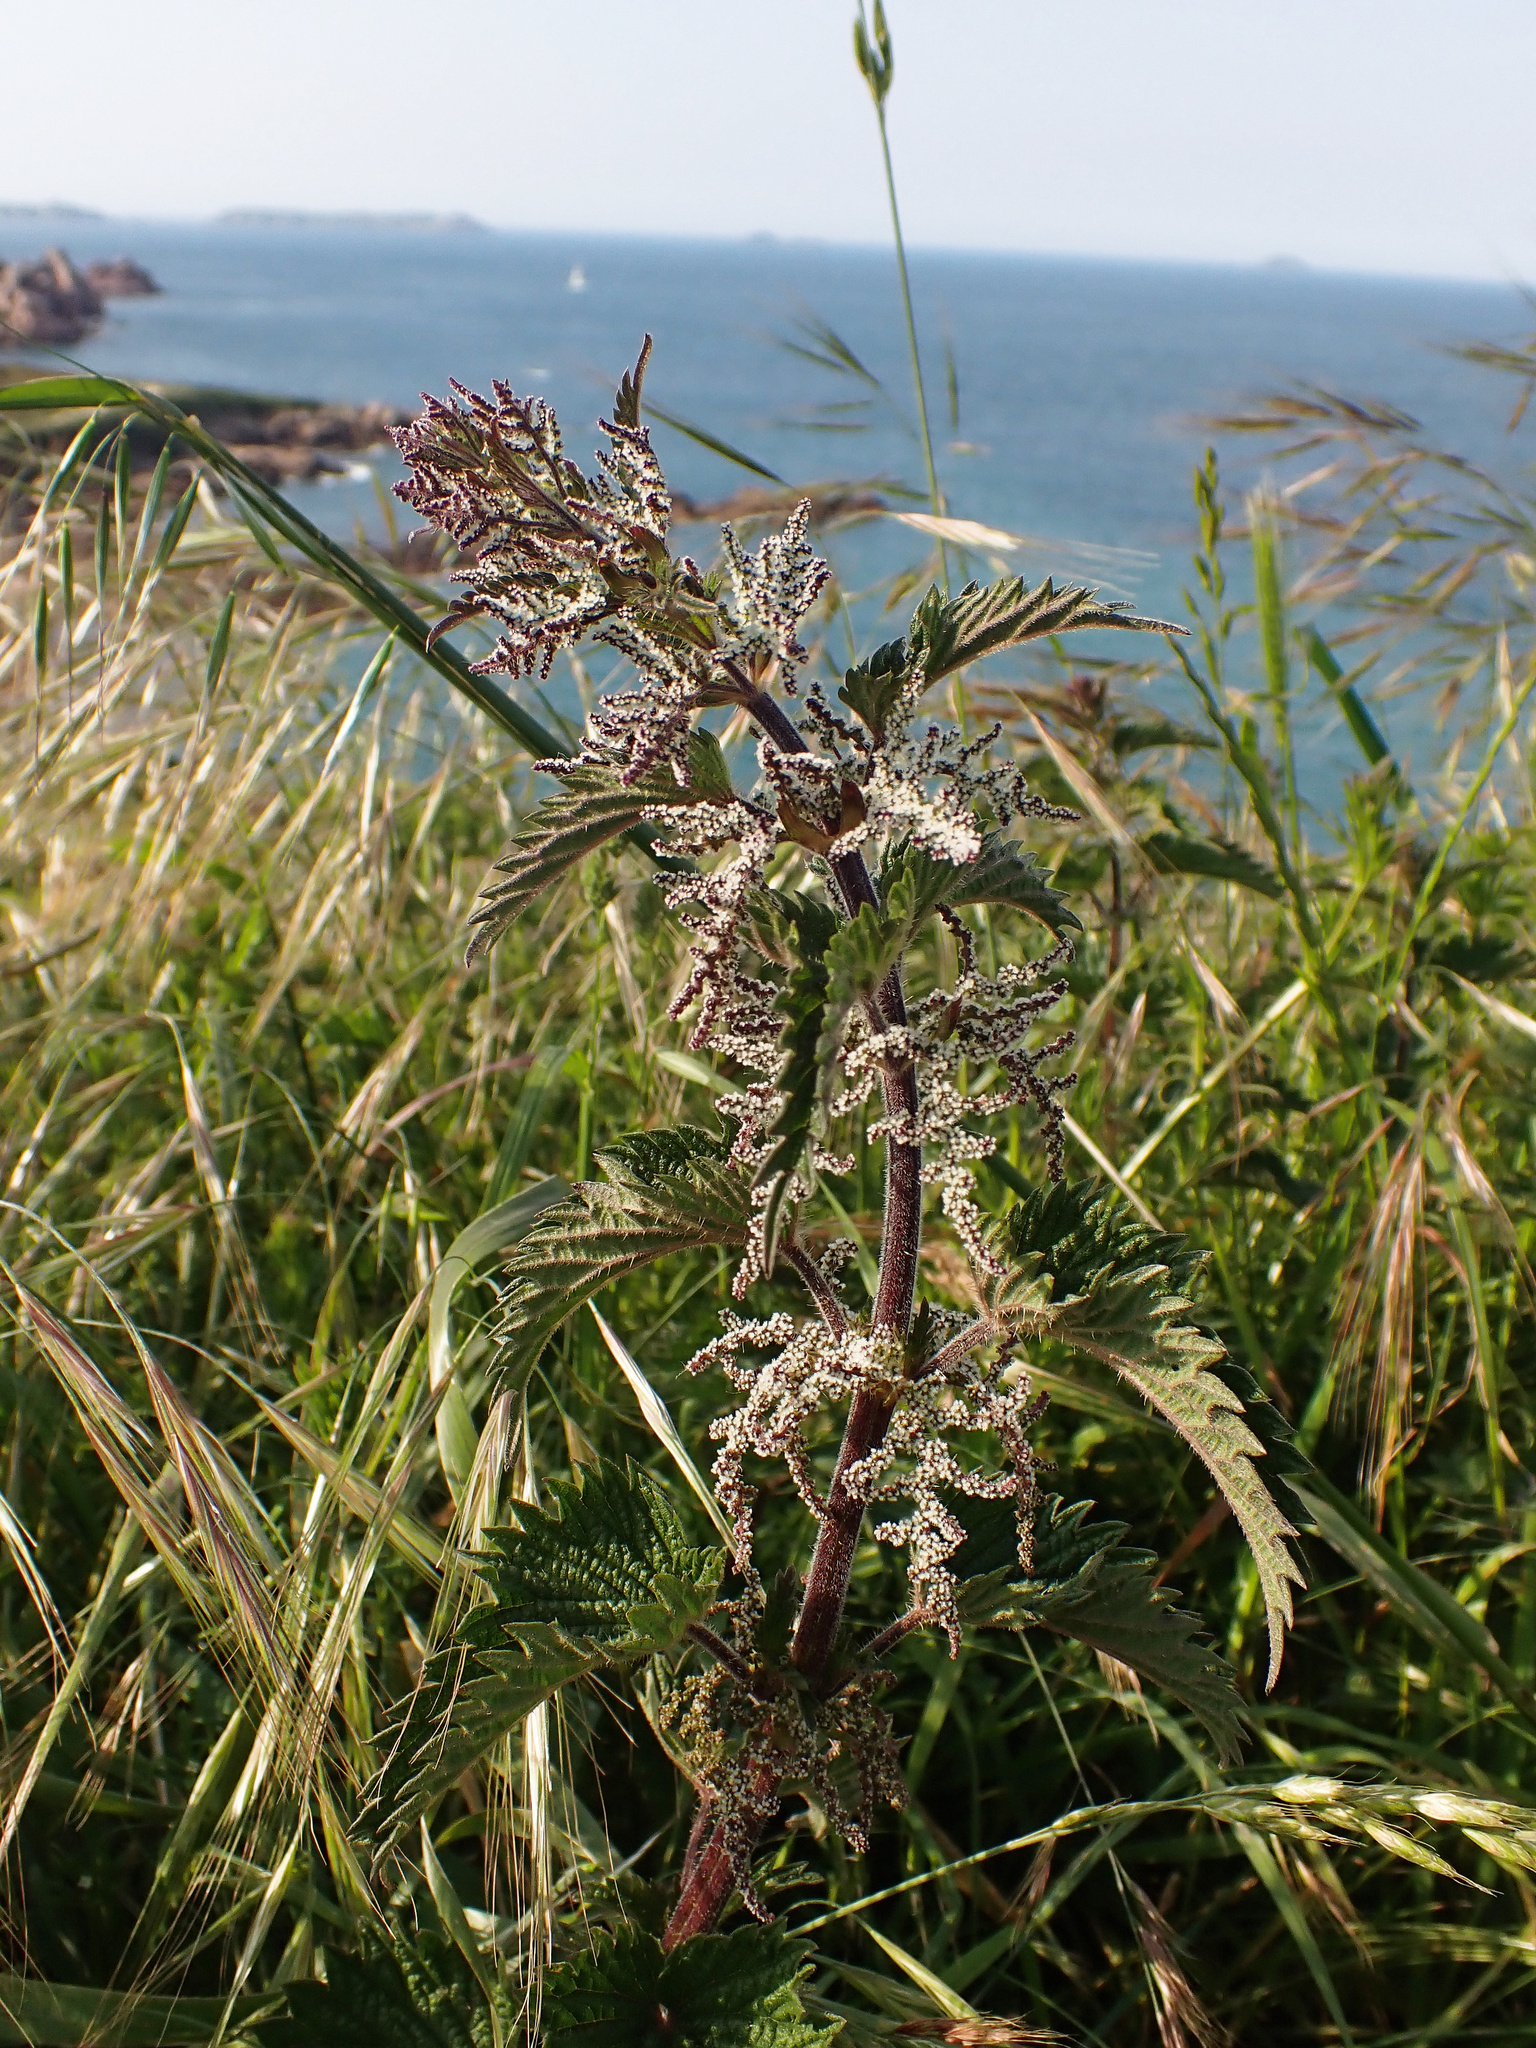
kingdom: Plantae
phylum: Tracheophyta
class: Magnoliopsida
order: Rosales
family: Urticaceae
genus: Urtica
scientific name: Urtica dioica
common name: Common nettle
